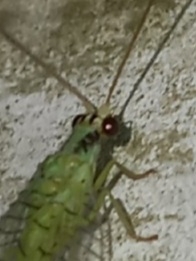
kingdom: Animalia
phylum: Arthropoda
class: Insecta
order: Neuroptera
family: Chrysopidae
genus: Chrysopa
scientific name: Chrysopa incompleta
